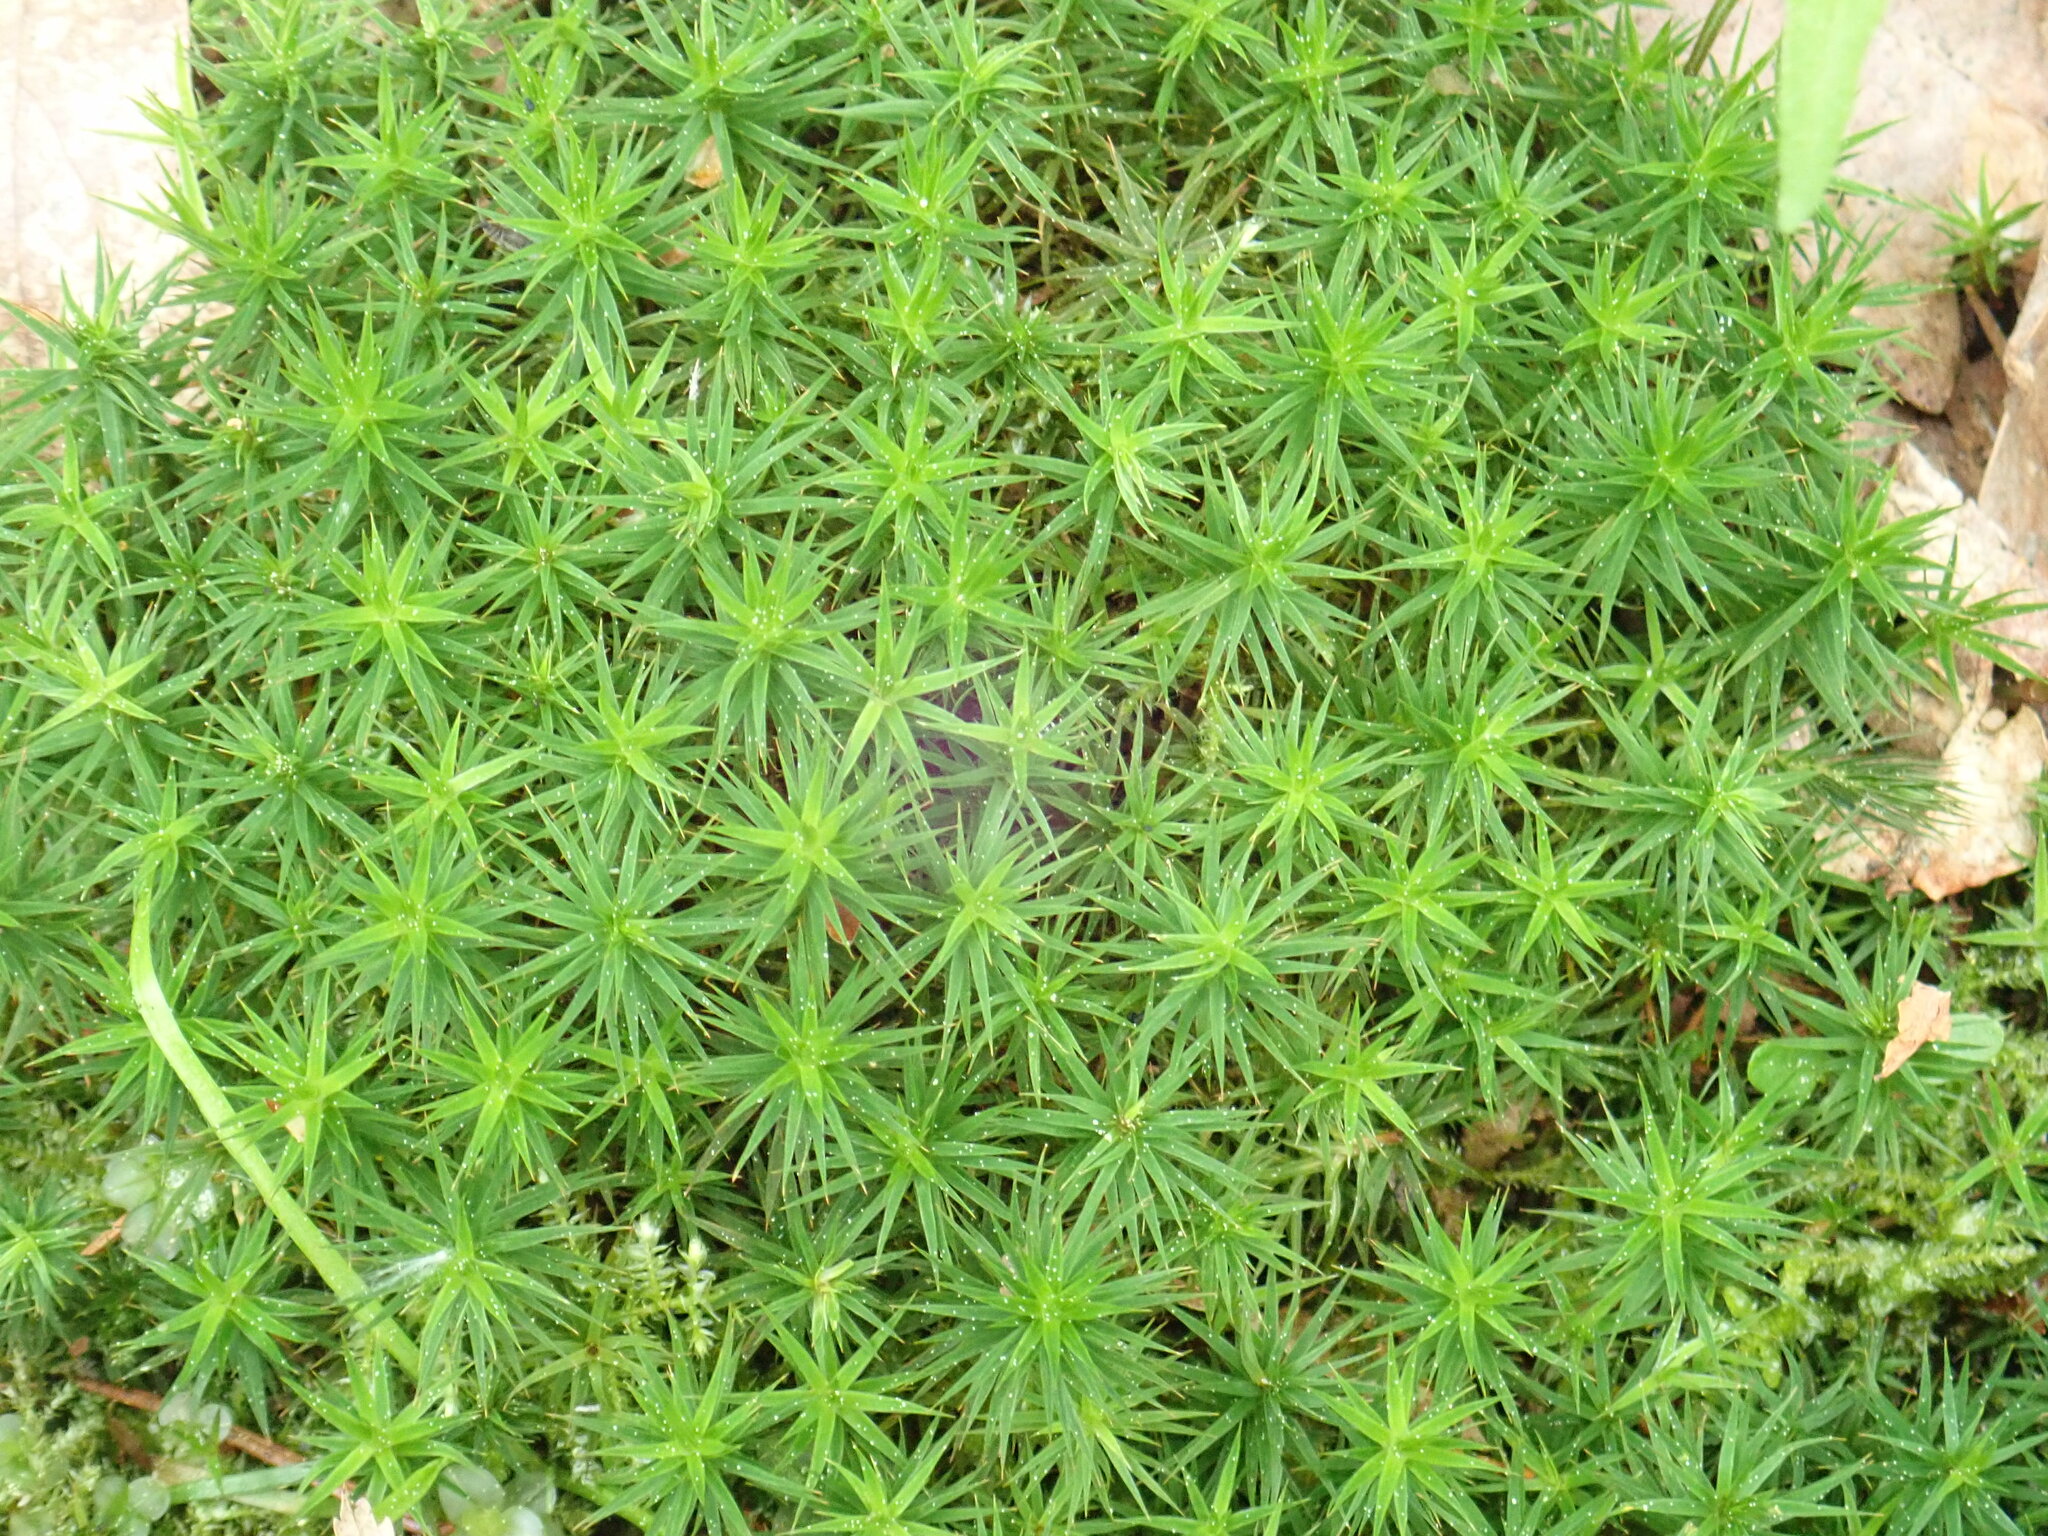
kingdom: Plantae
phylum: Bryophyta
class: Polytrichopsida
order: Polytrichales
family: Polytrichaceae
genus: Polytrichum
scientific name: Polytrichum formosum
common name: Bank haircap moss
